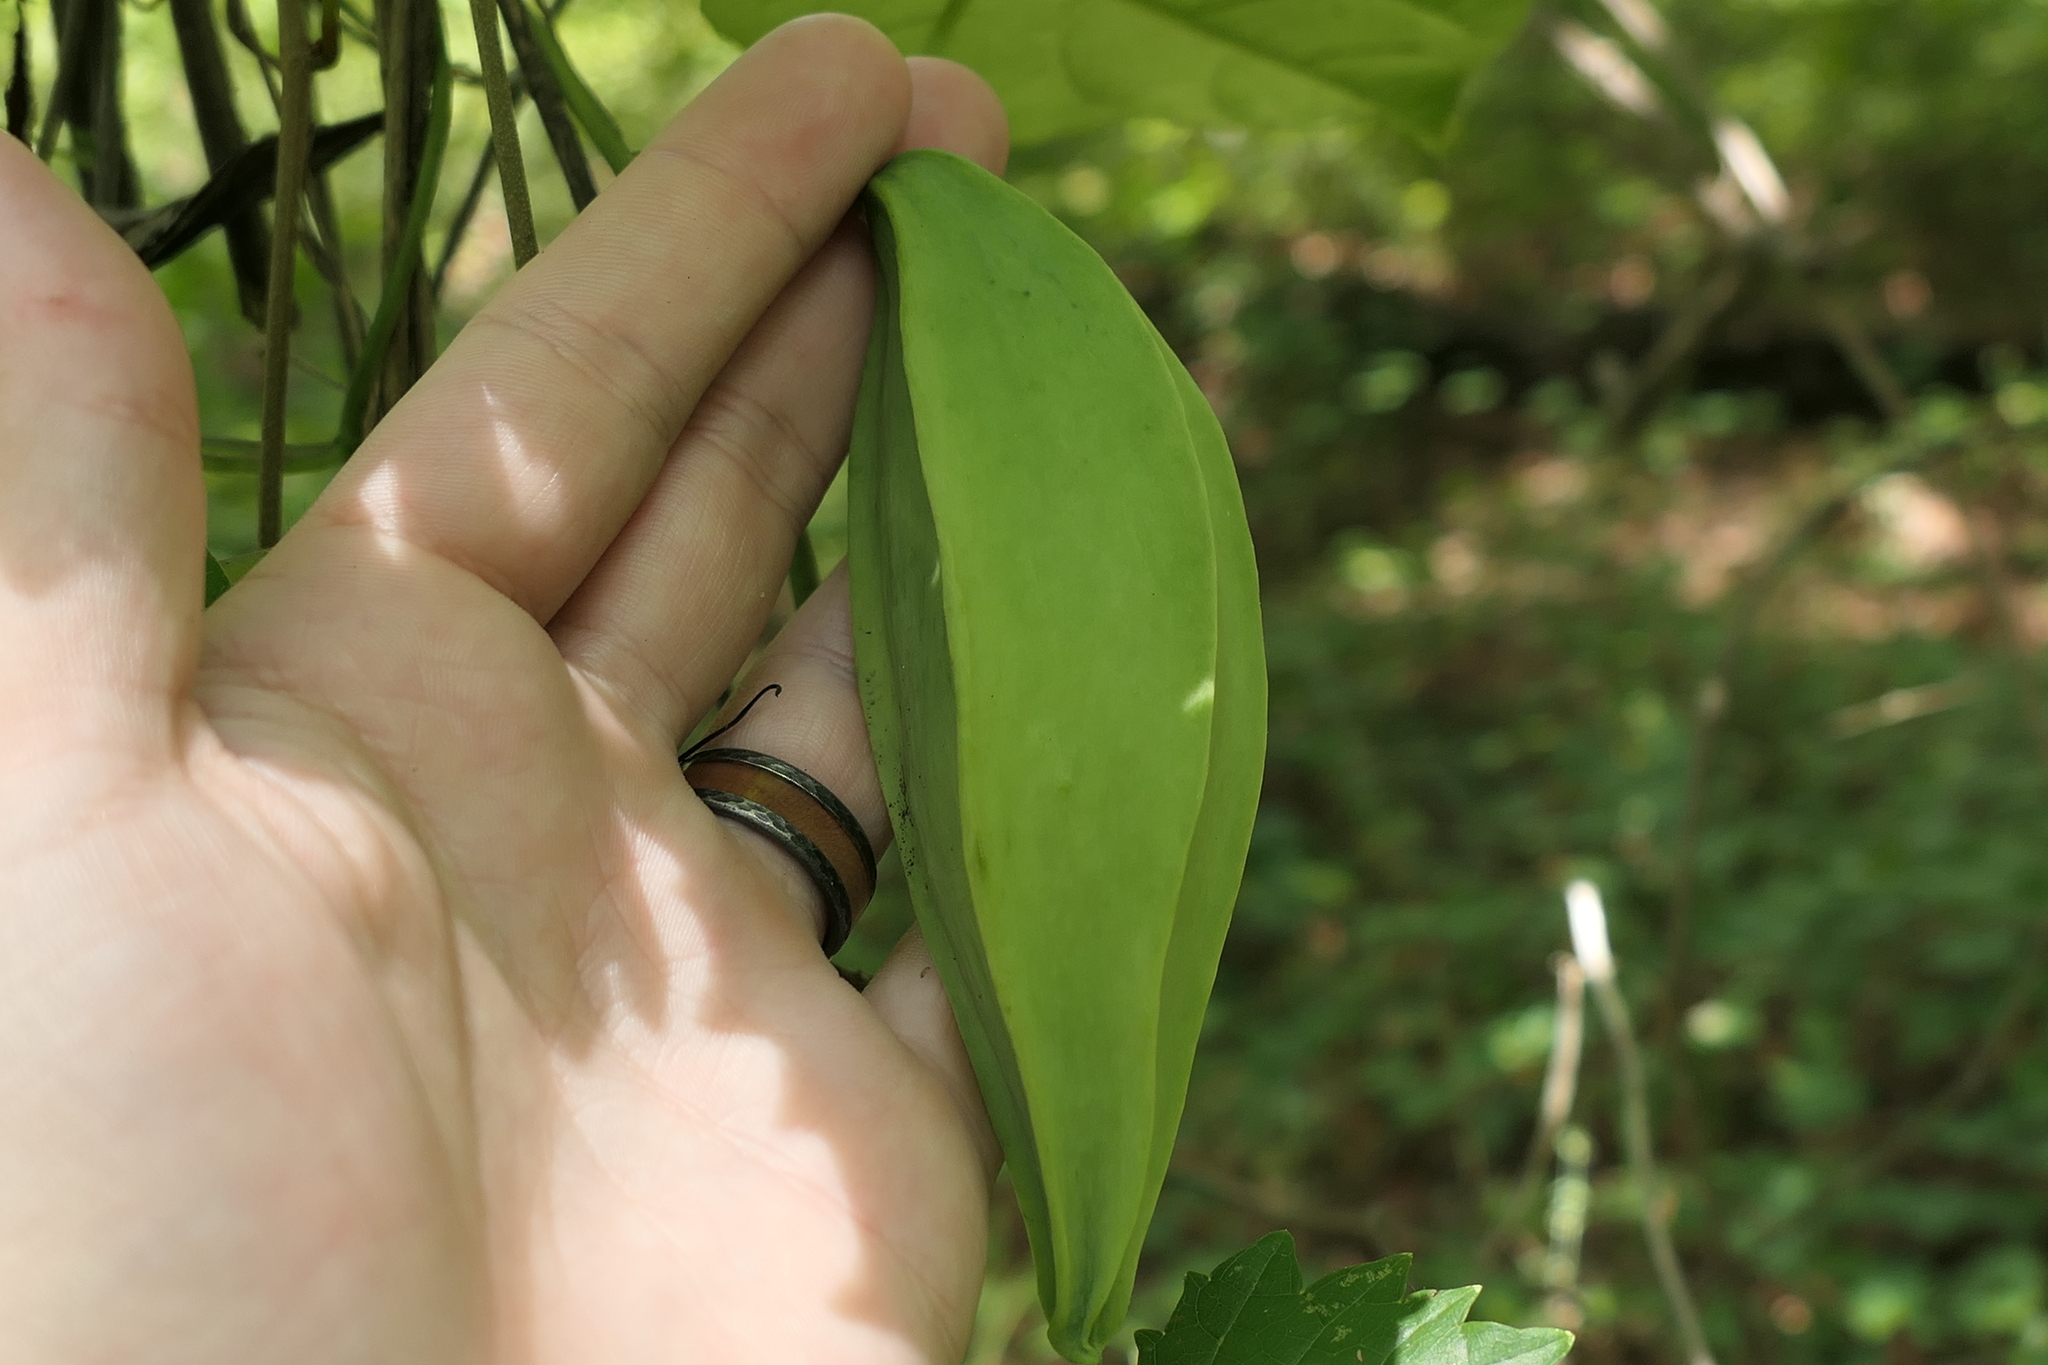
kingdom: Plantae
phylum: Tracheophyta
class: Magnoliopsida
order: Gentianales
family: Apocynaceae
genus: Gonolobus
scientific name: Gonolobus suberosus
